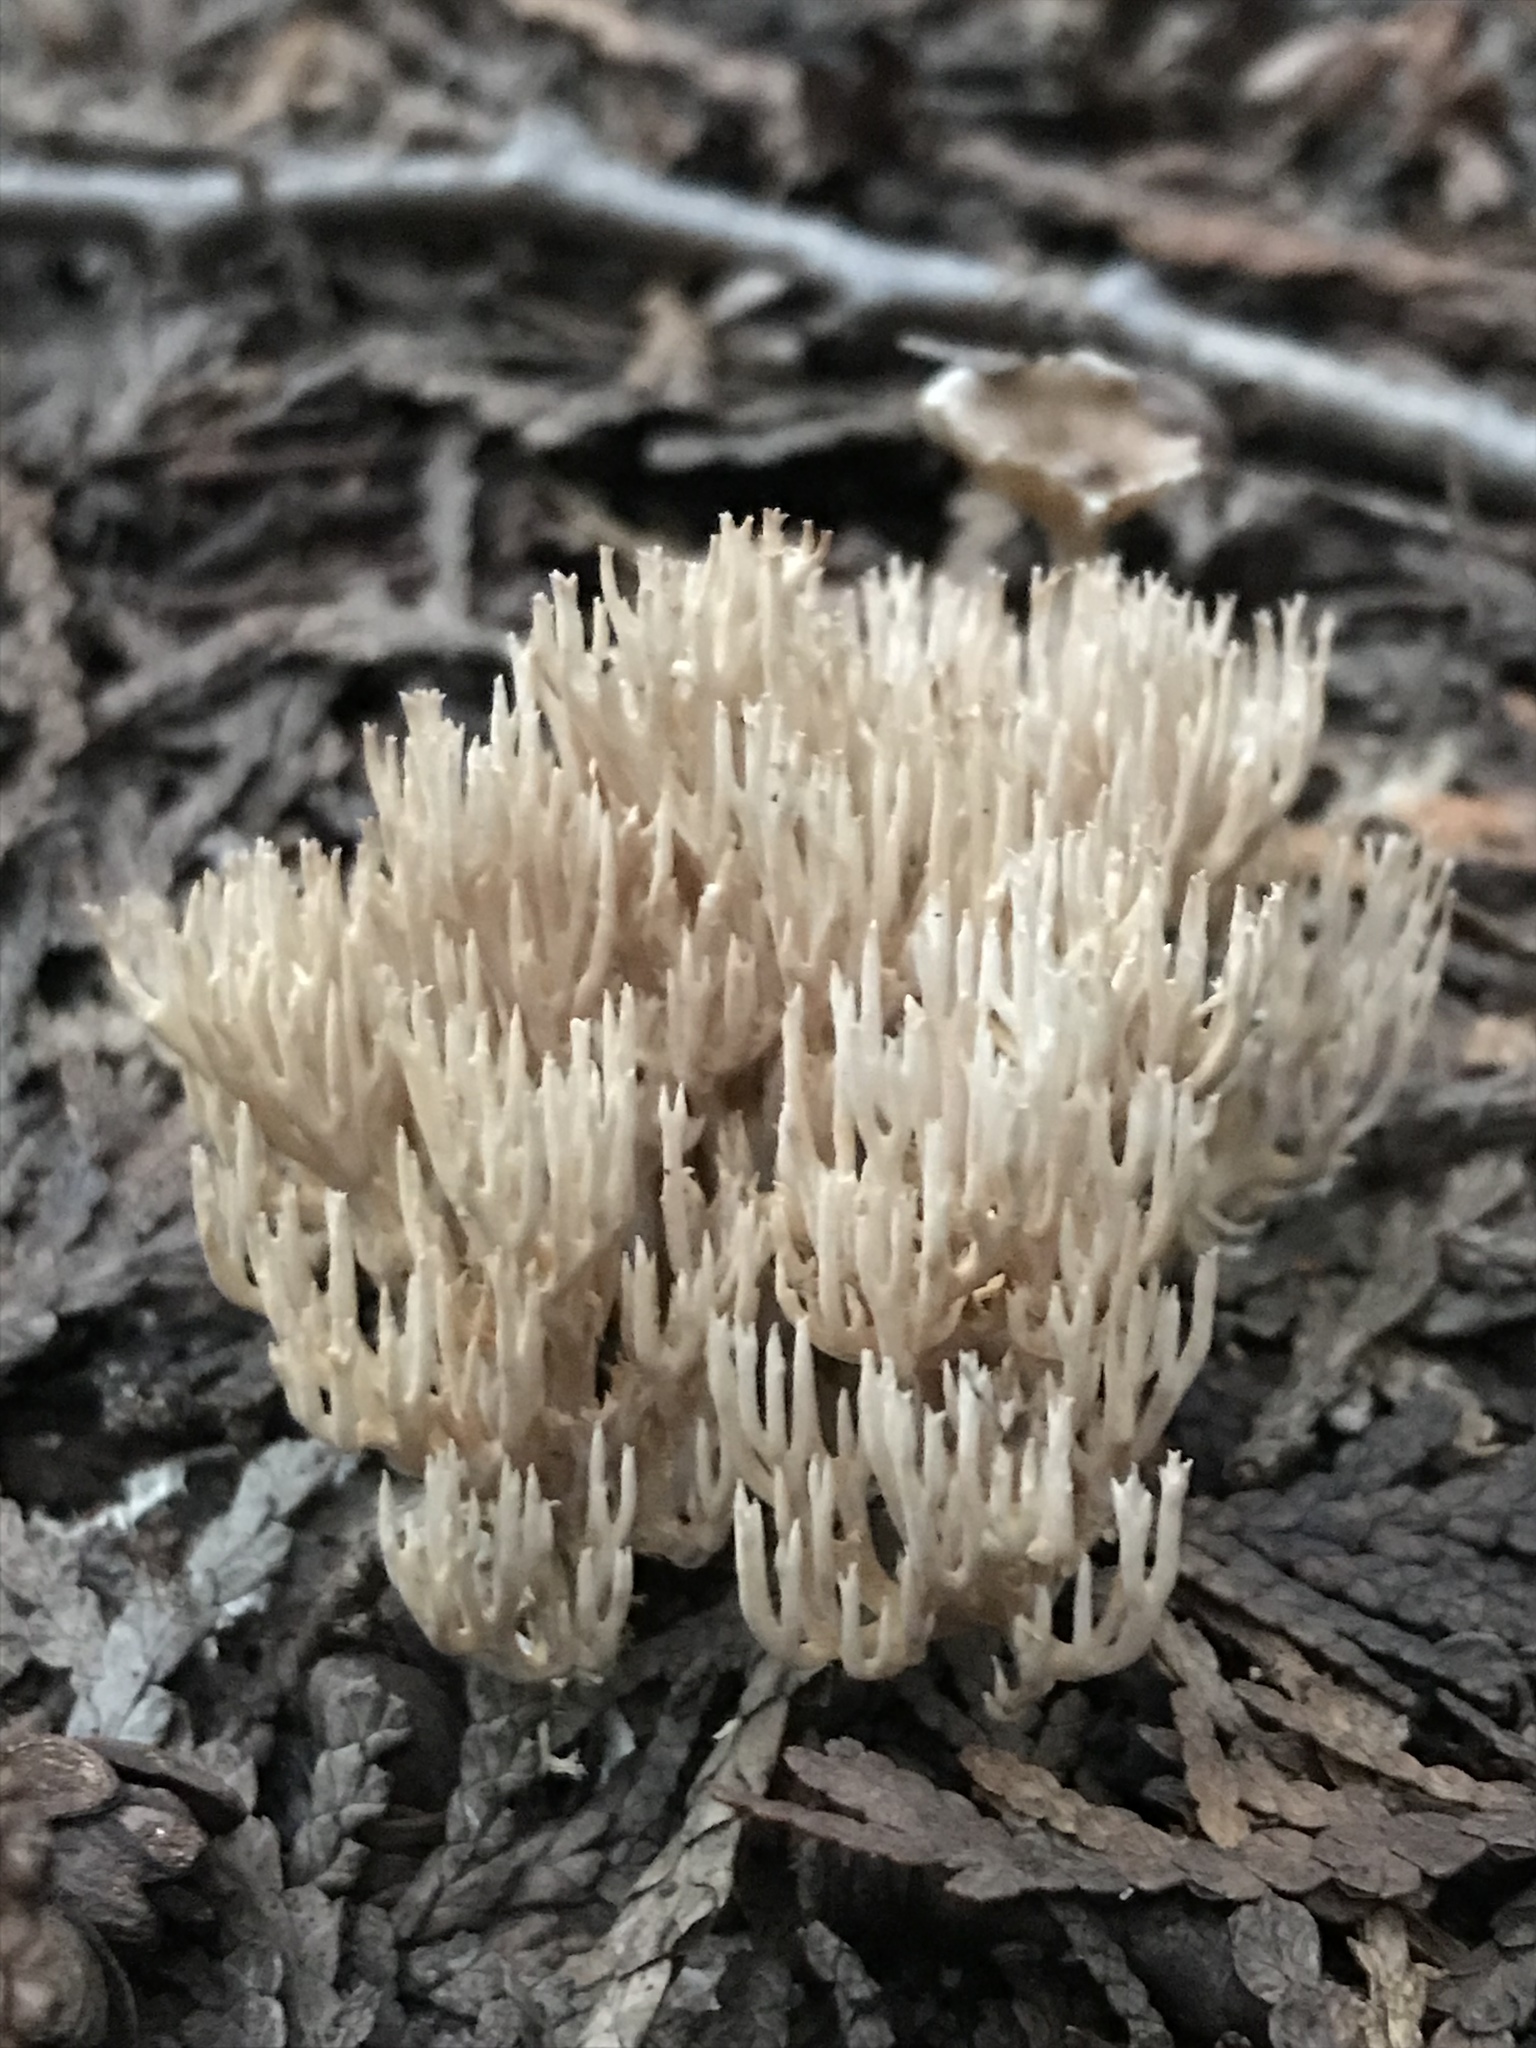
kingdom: Fungi
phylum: Basidiomycota
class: Agaricomycetes
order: Russulales
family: Auriscalpiaceae
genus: Artomyces
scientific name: Artomyces pyxidatus
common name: Crown-tipped coral fungus
